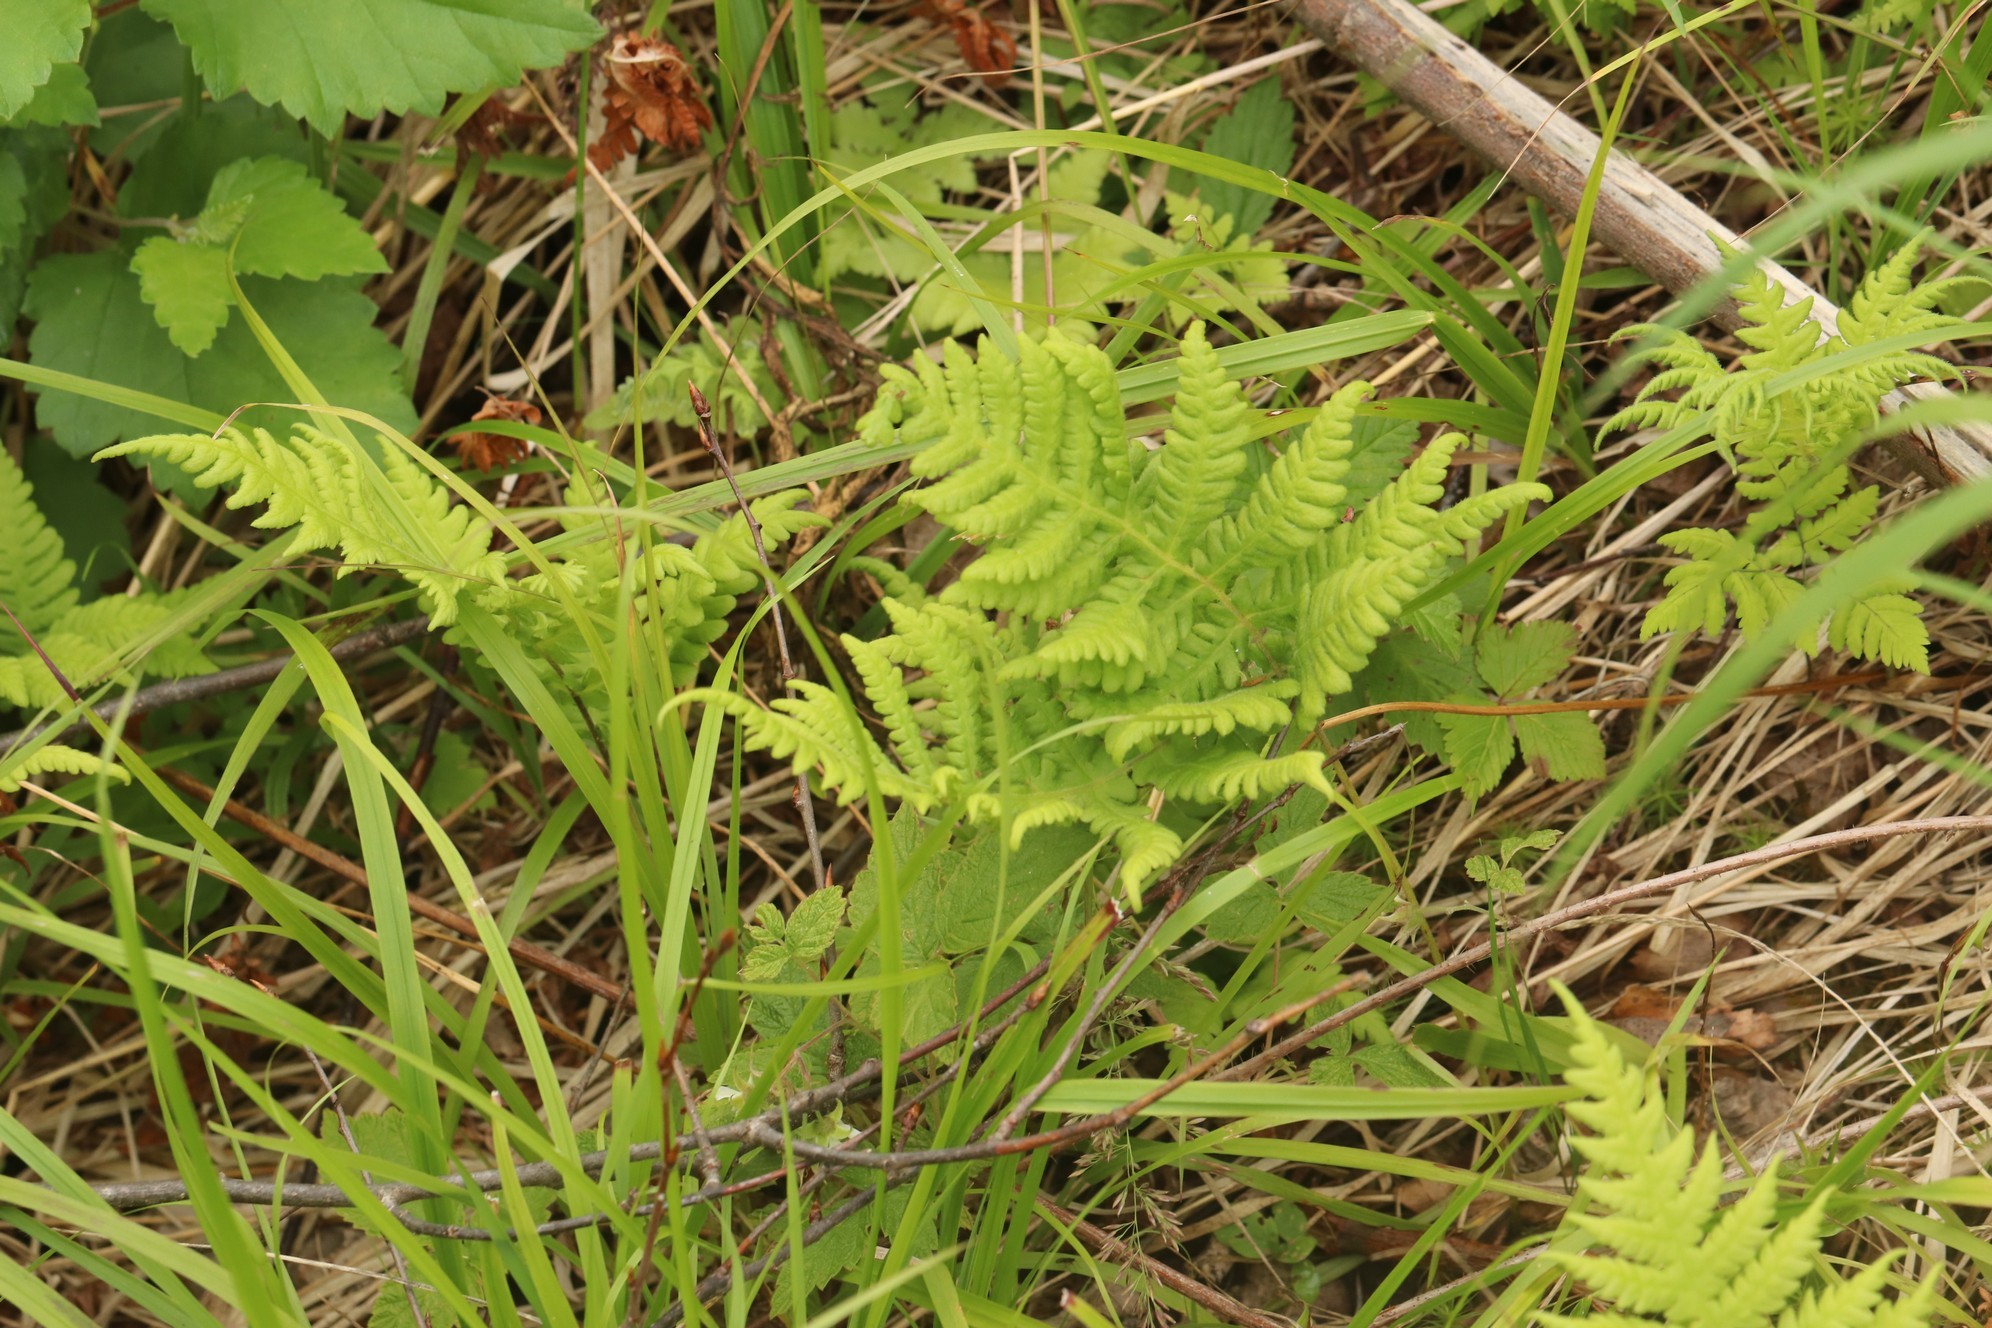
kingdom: Plantae
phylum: Tracheophyta
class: Polypodiopsida
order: Polypodiales
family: Thelypteridaceae
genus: Phegopteris
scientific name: Phegopteris connectilis
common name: Beech fern
